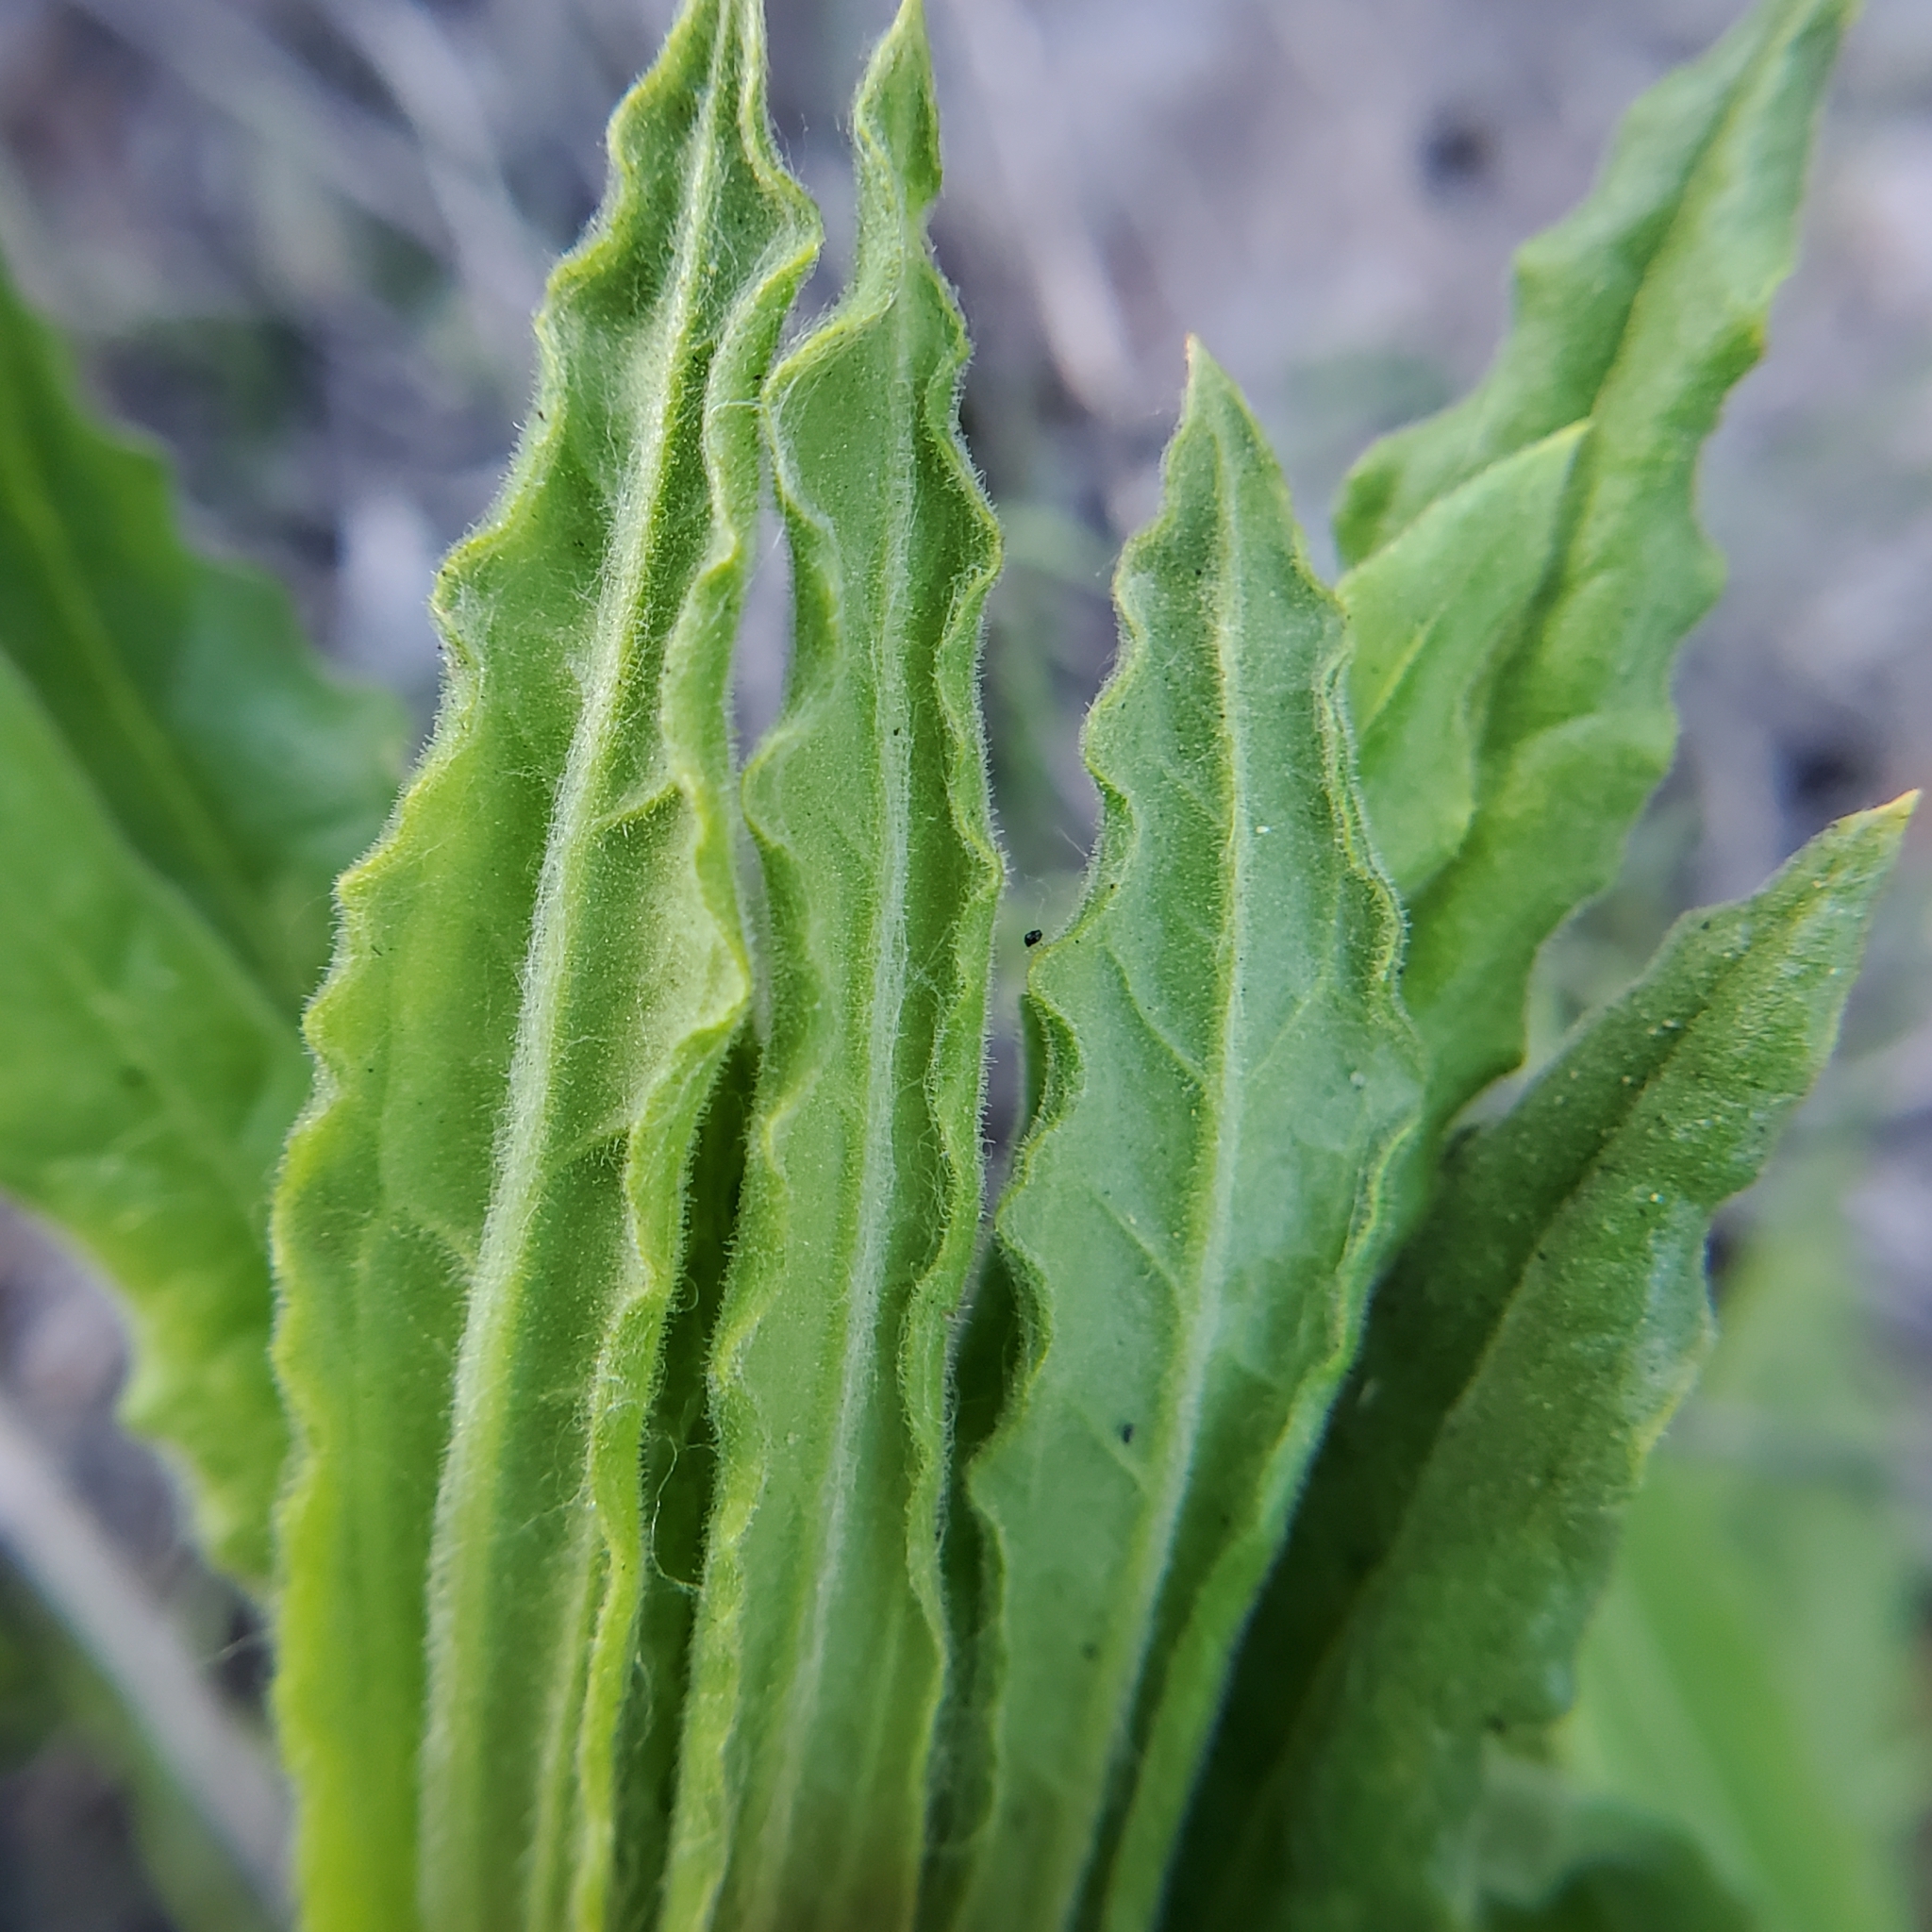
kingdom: Plantae
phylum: Tracheophyta
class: Magnoliopsida
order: Asterales
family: Asteraceae
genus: Pseudognaphalium
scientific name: Pseudognaphalium californicum
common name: California rabbit-tobacco
